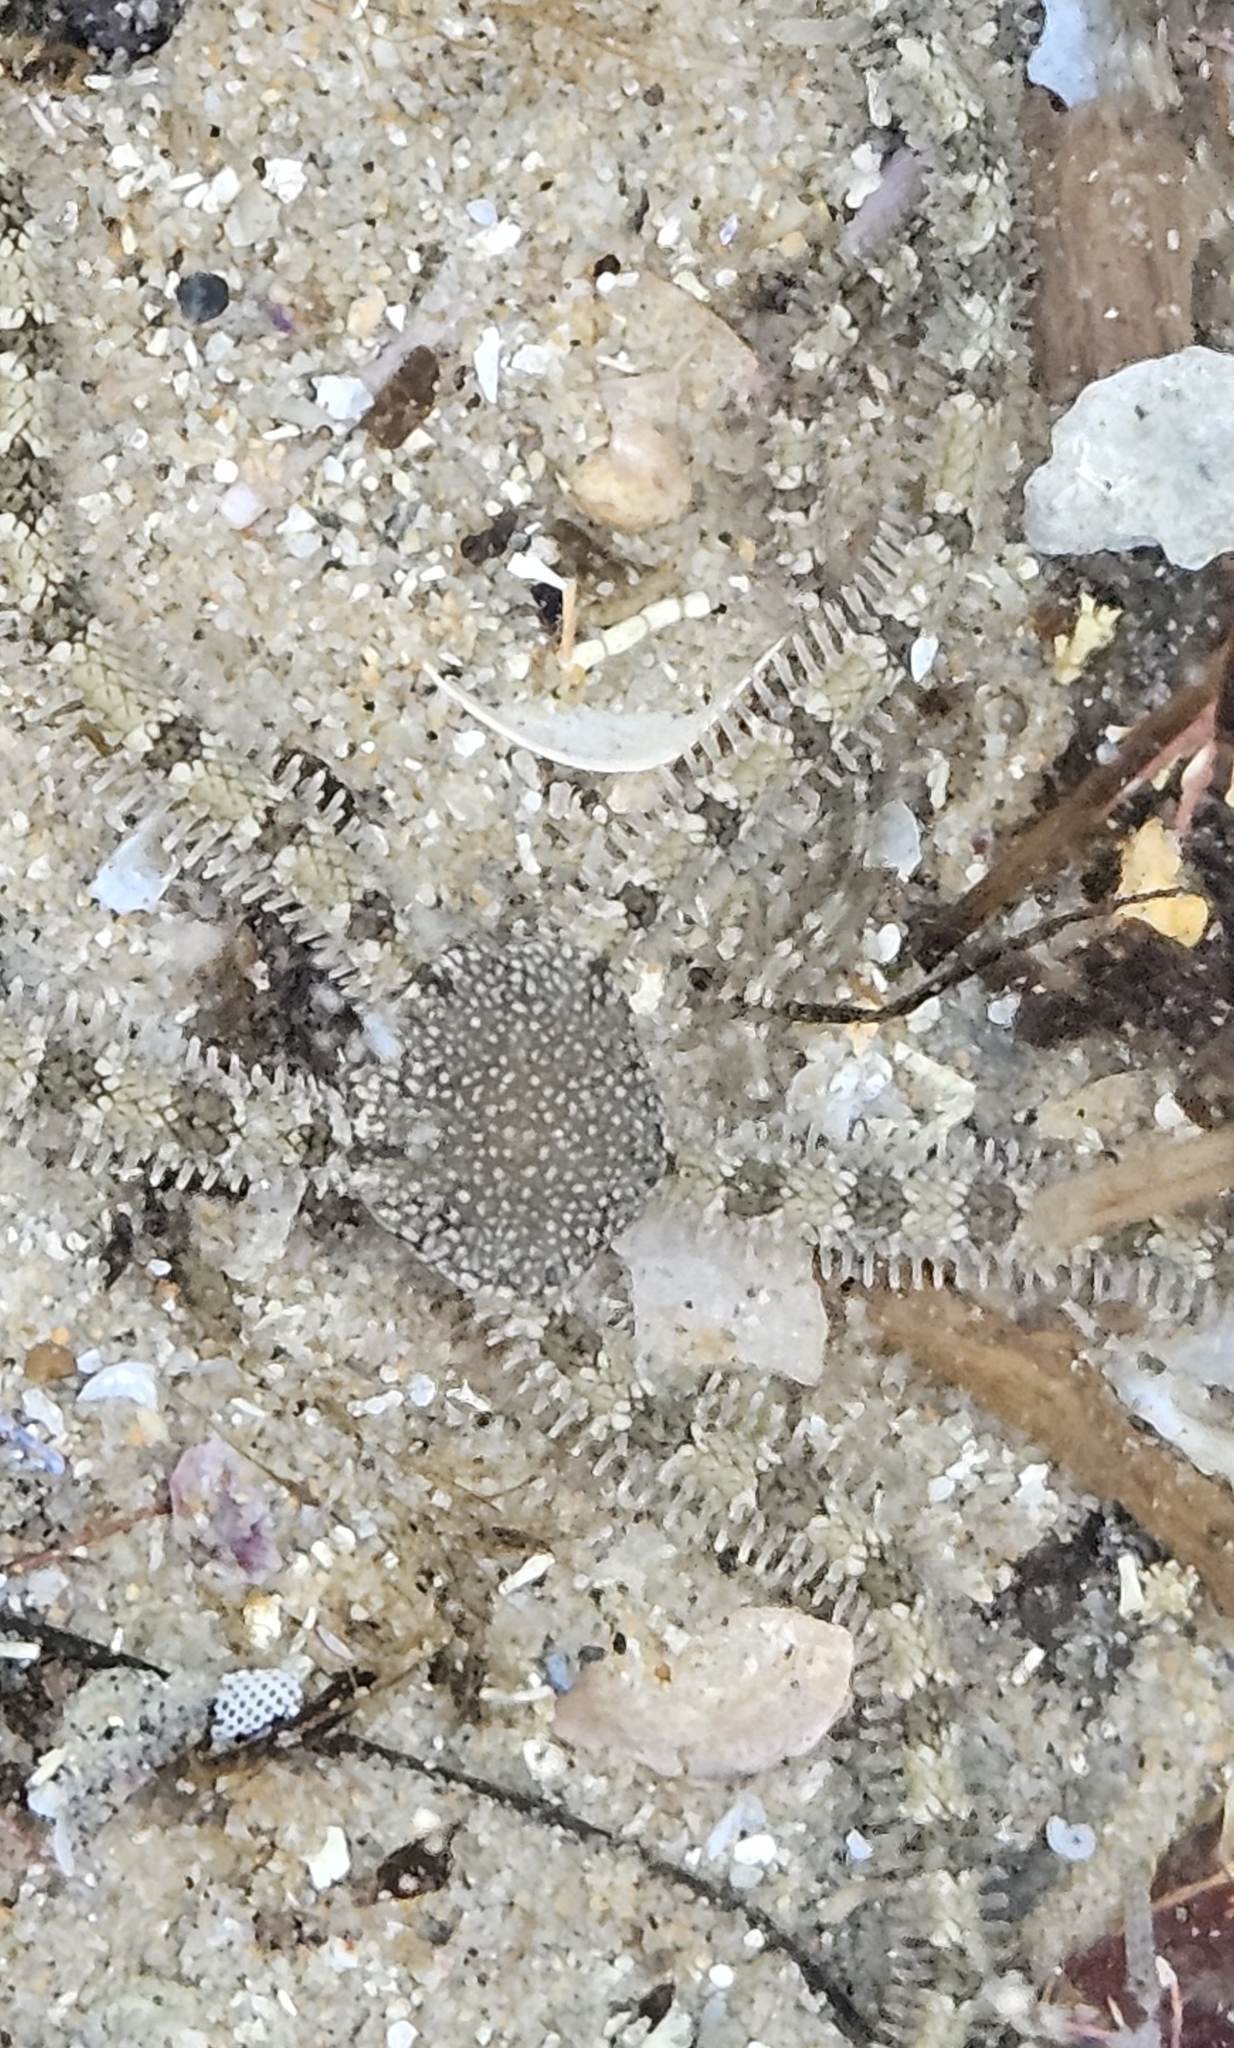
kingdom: Animalia
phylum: Echinodermata
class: Ophiuroidea
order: Amphilepidida
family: Ophionereididae
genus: Ophionereis
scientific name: Ophionereis annulata
